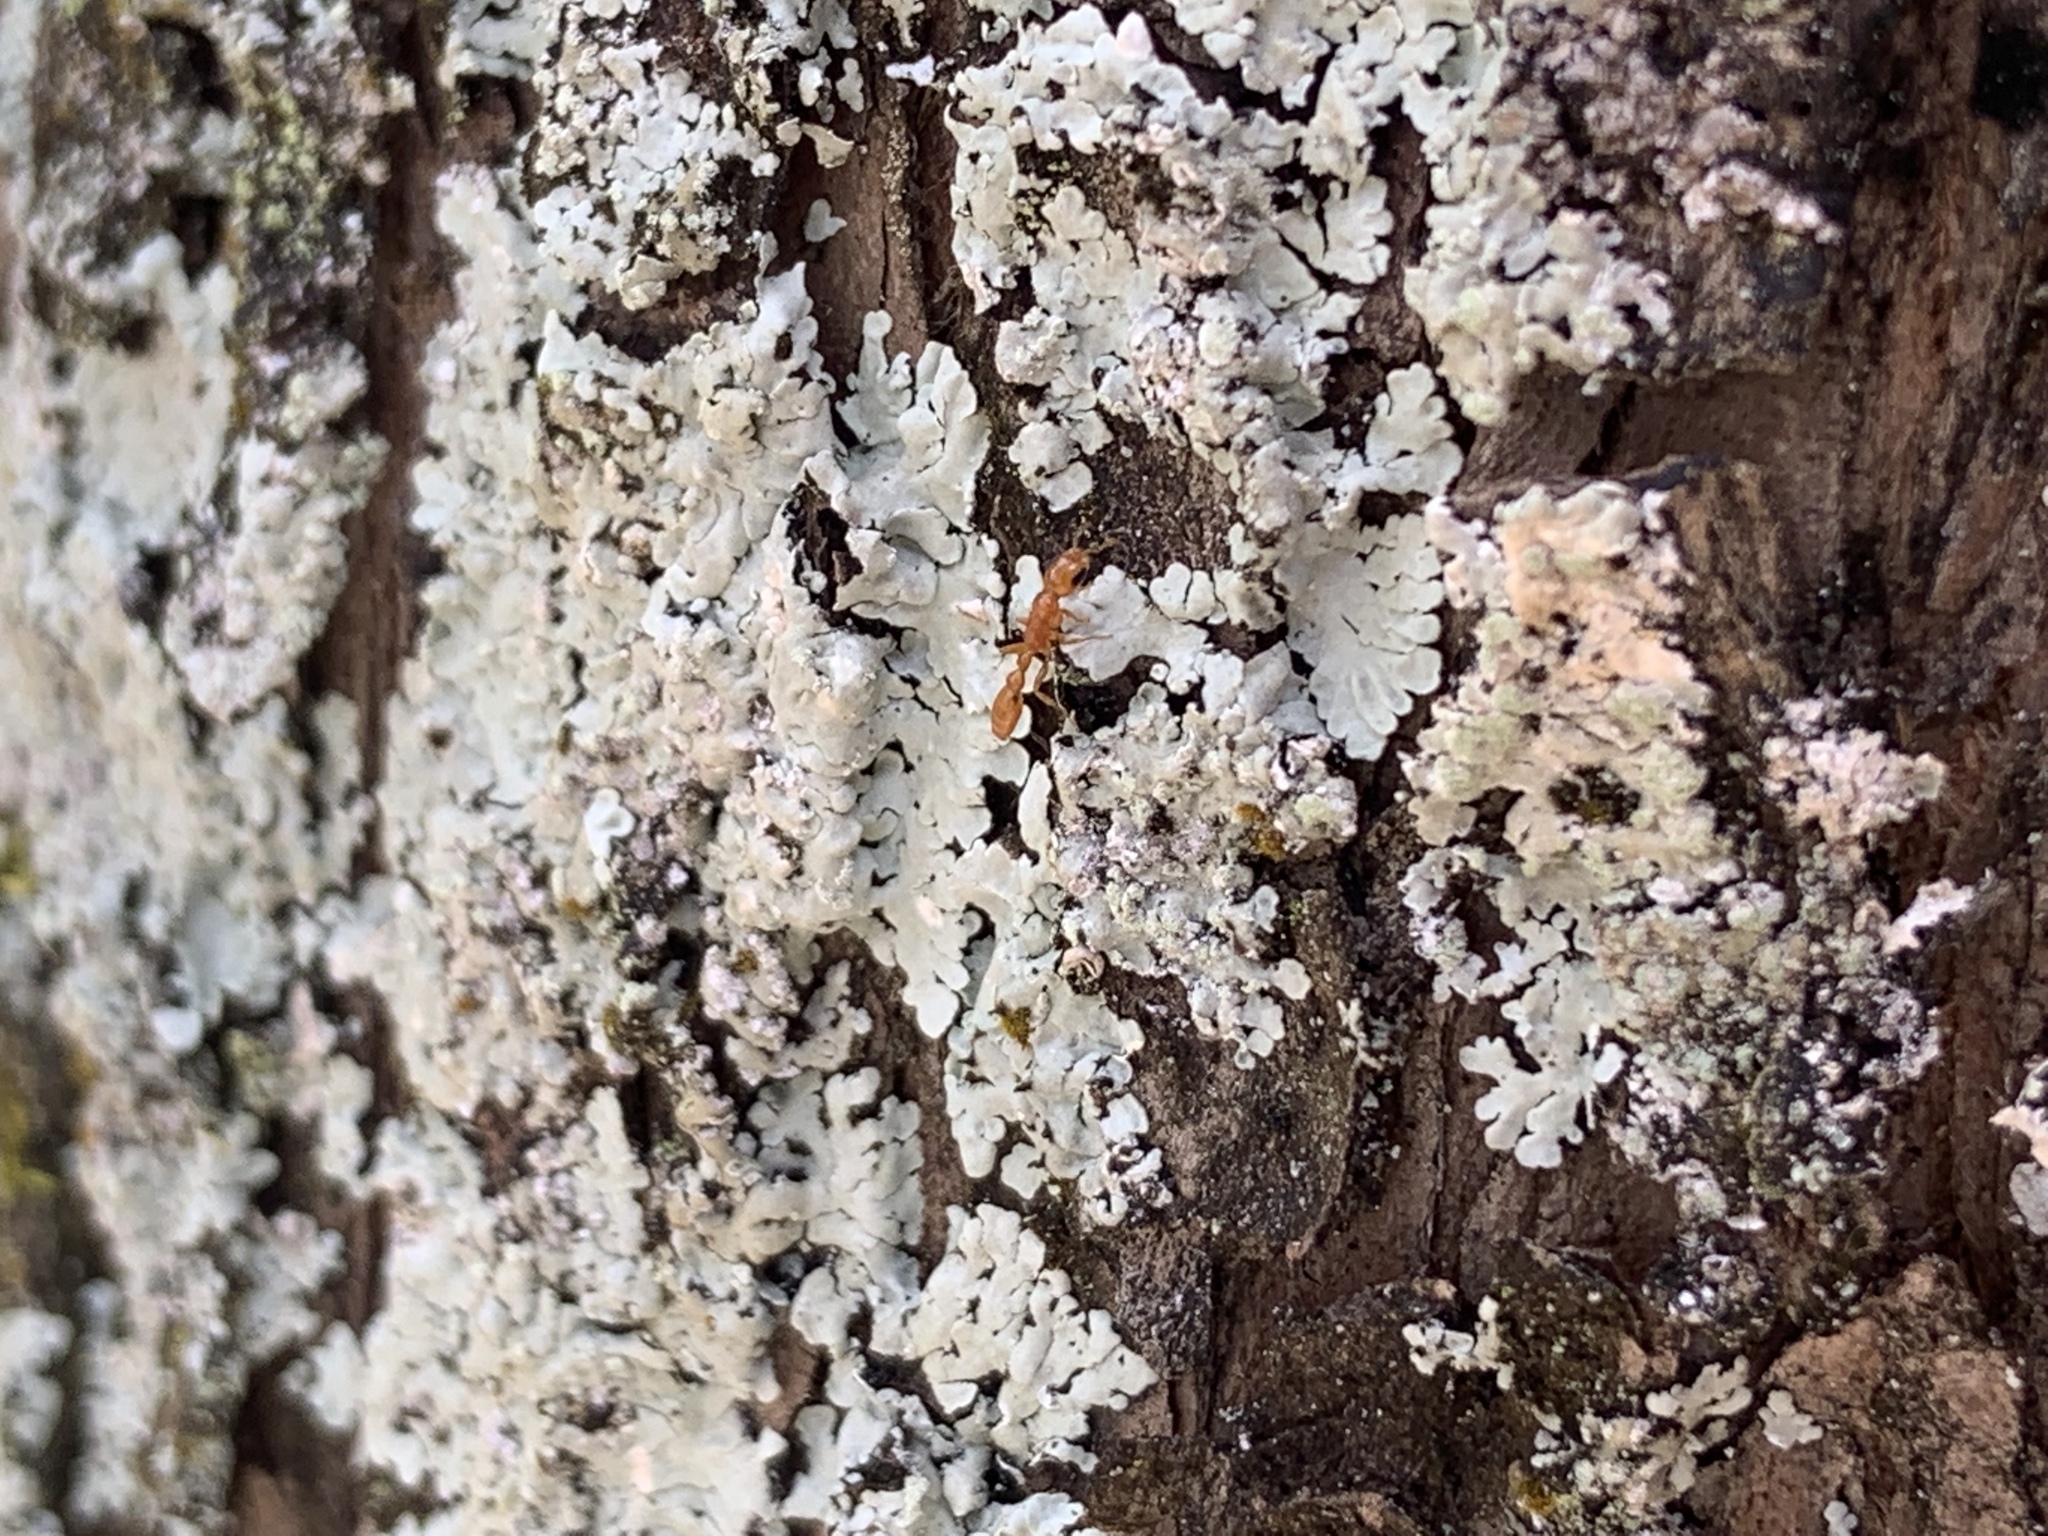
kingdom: Animalia
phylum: Arthropoda
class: Insecta
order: Hymenoptera
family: Formicidae
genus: Pseudomyrmex
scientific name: Pseudomyrmex simplex
